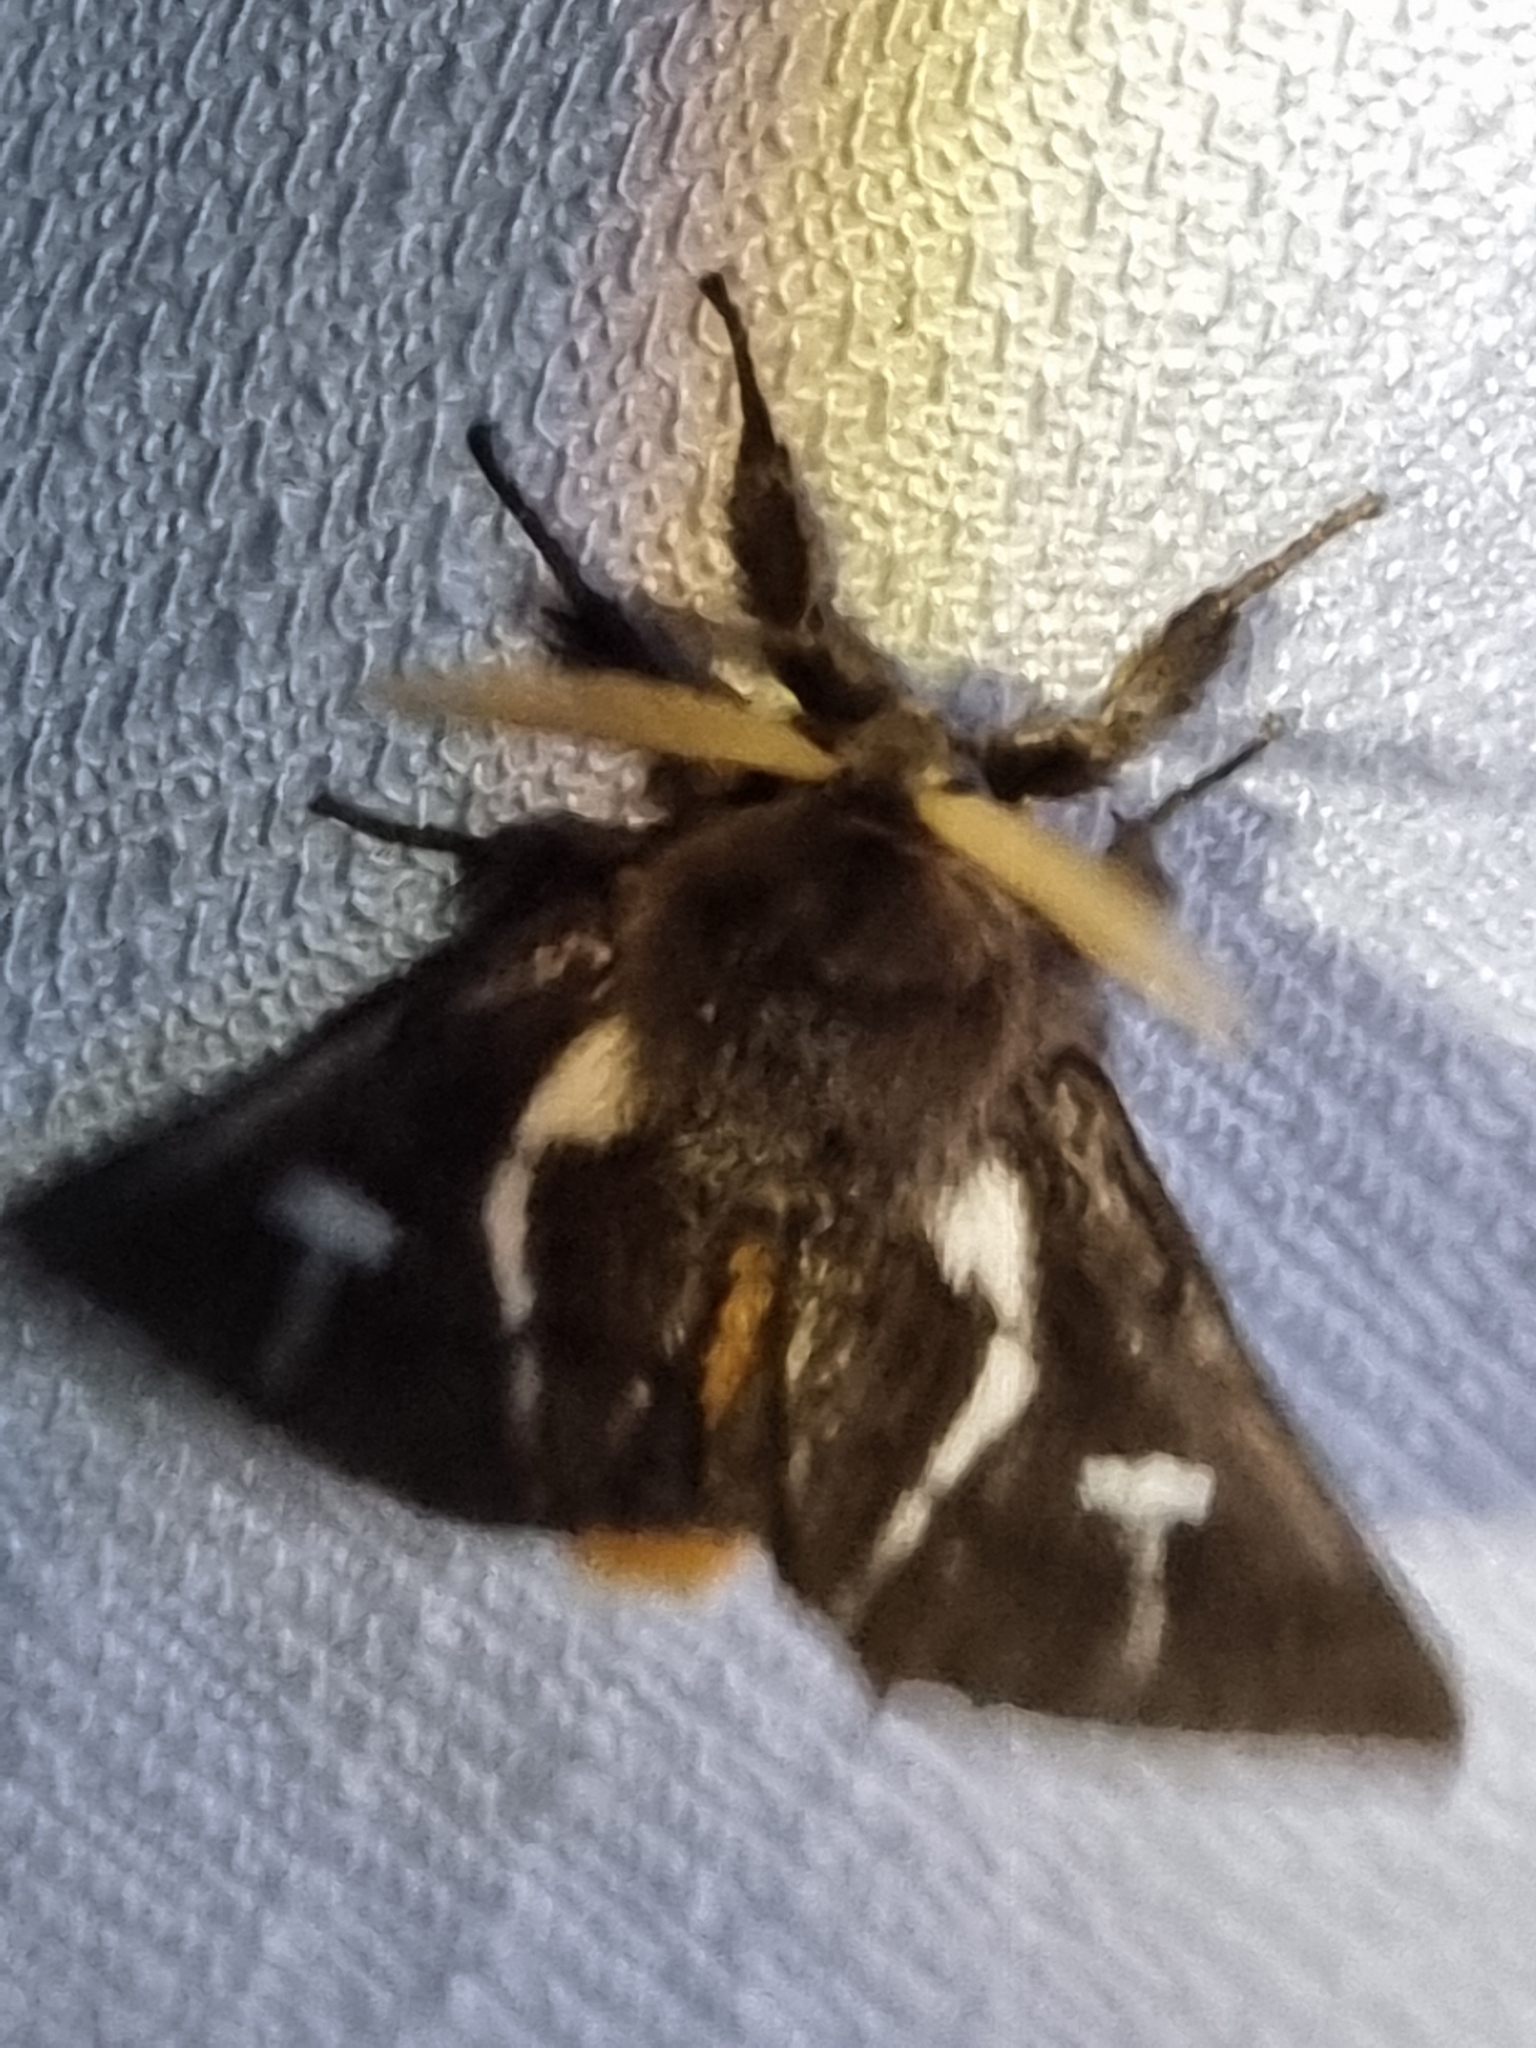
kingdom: Animalia
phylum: Arthropoda
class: Insecta
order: Lepidoptera
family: Notodontidae
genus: Ochrogaster
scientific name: Ochrogaster lunifer
